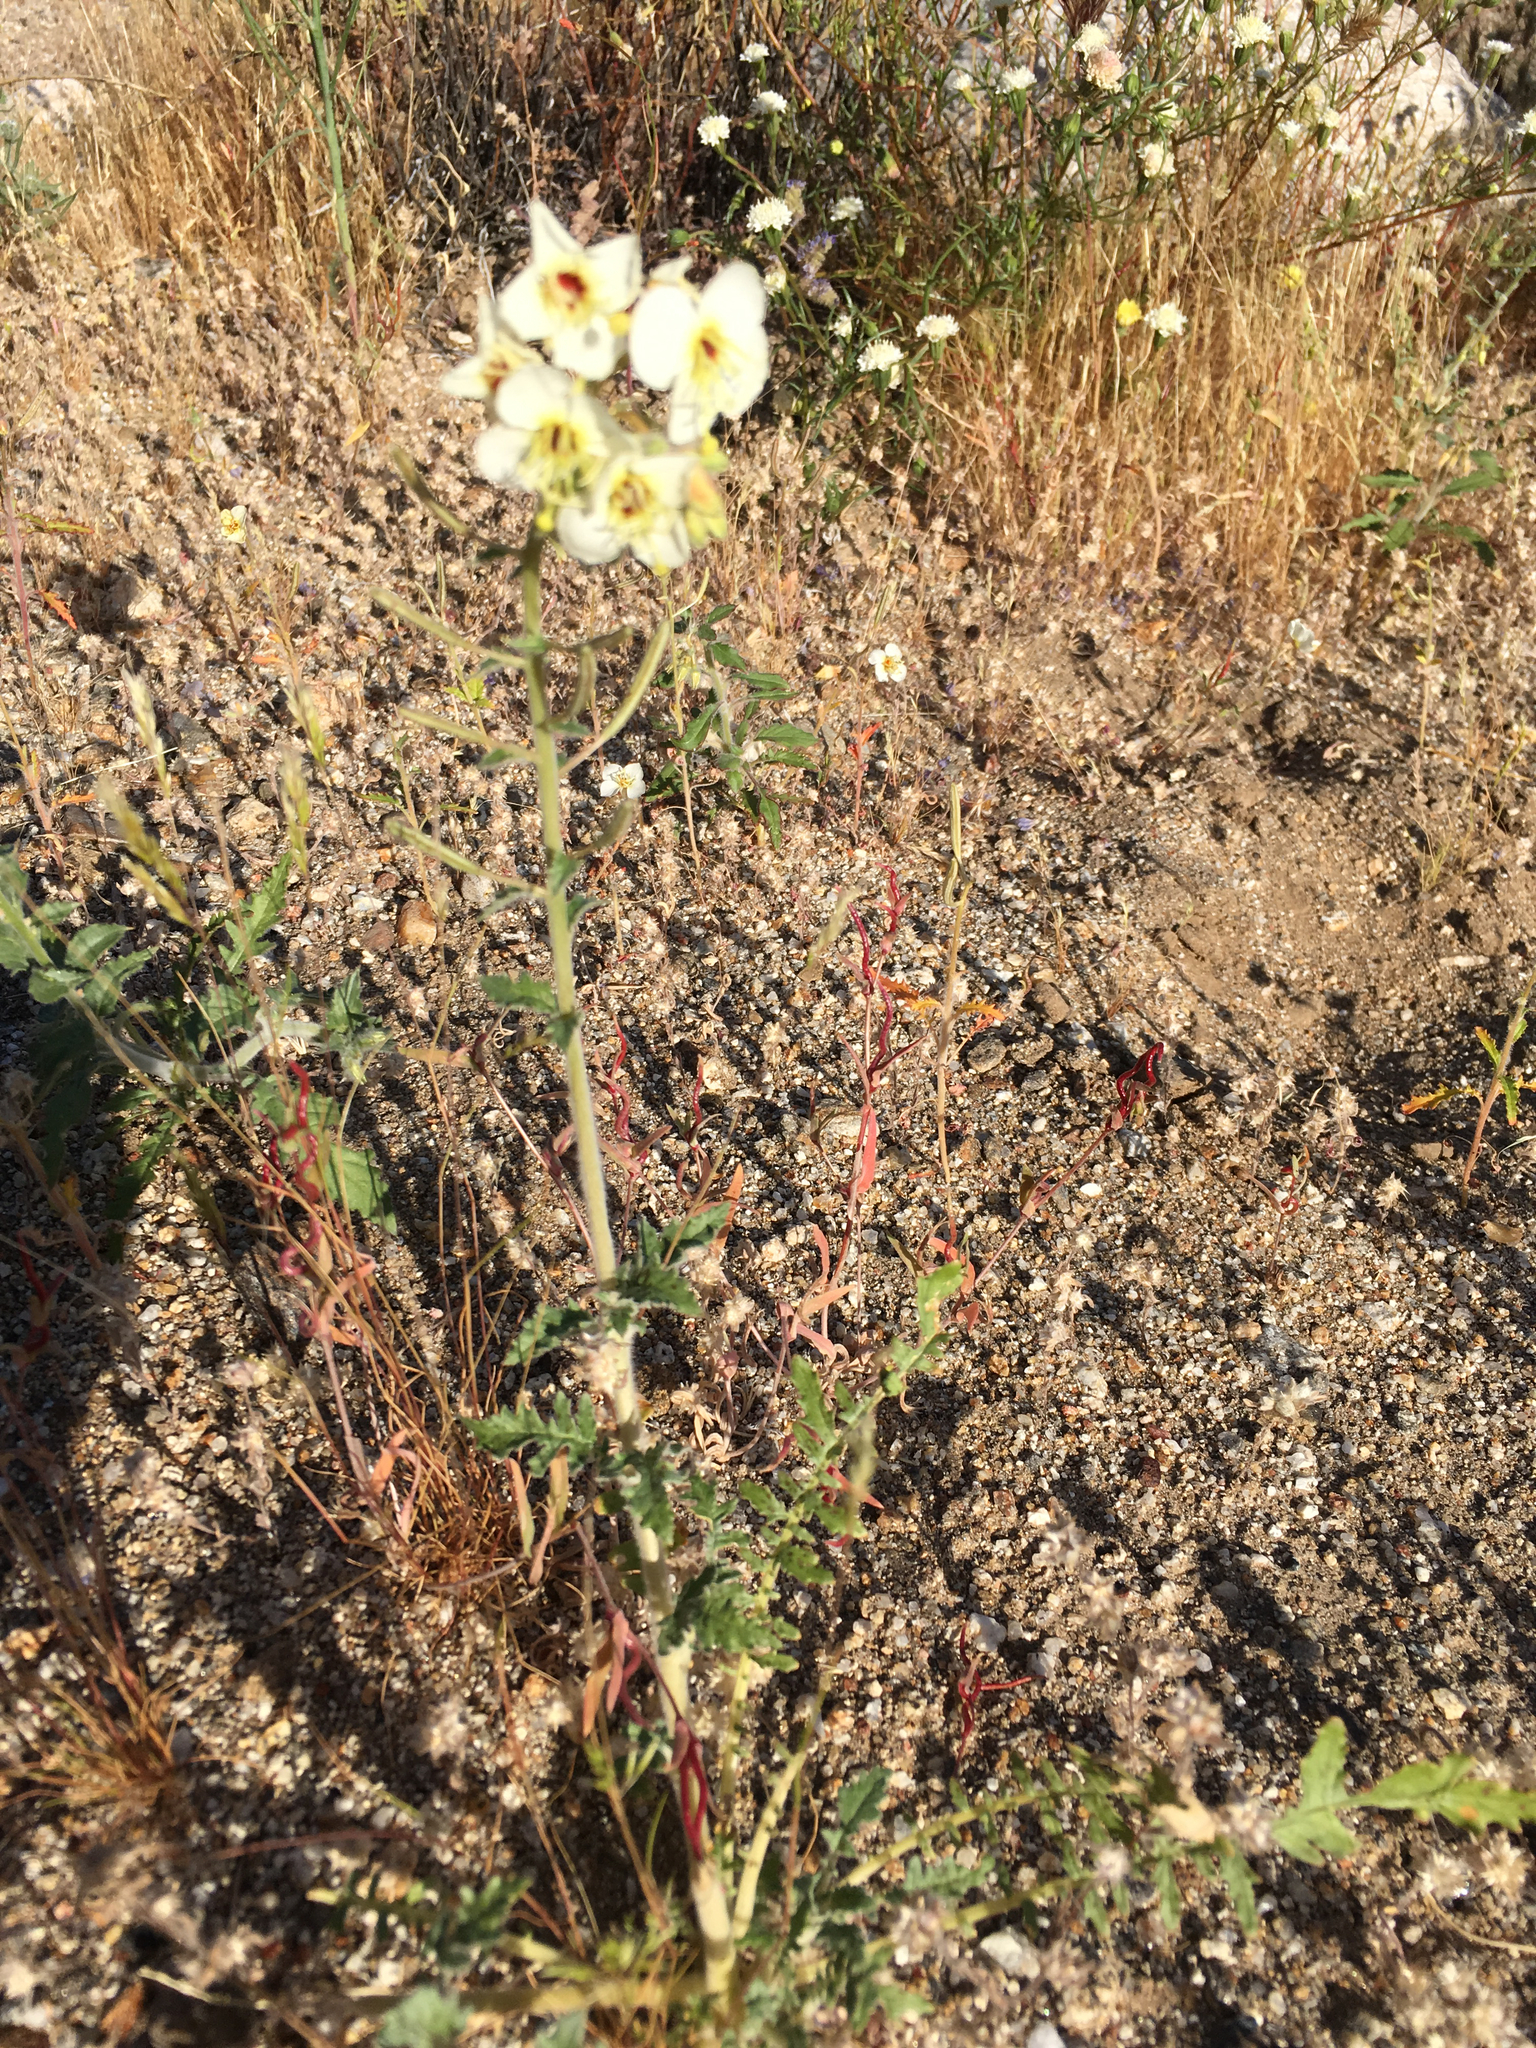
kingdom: Plantae
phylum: Tracheophyta
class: Magnoliopsida
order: Myrtales
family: Onagraceae
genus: Chylismia
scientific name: Chylismia claviformis
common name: Browneyes
